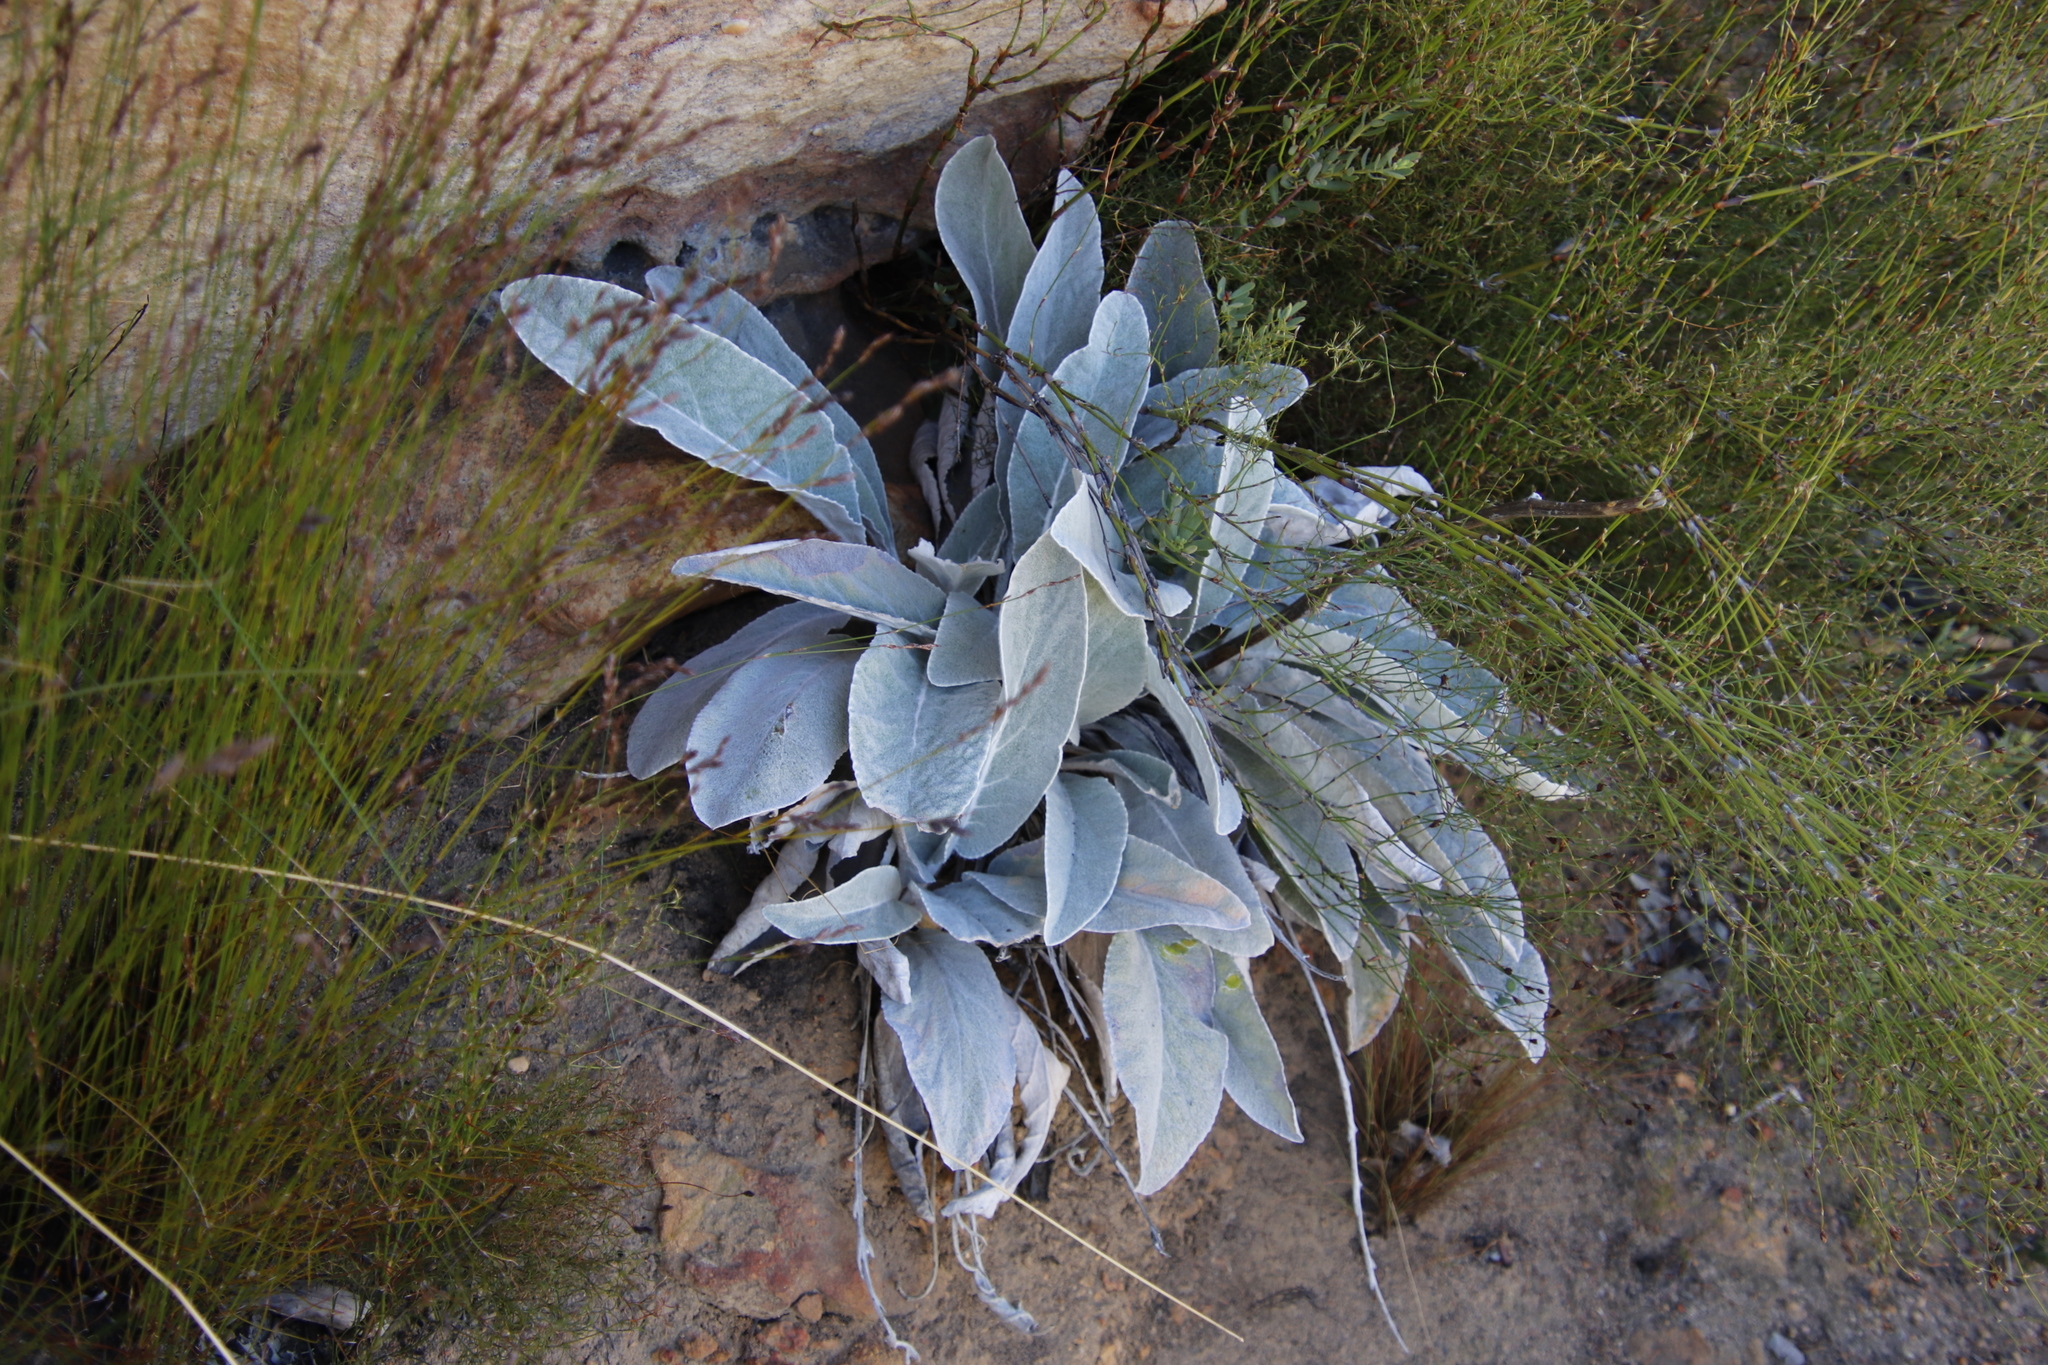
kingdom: Plantae
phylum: Tracheophyta
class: Magnoliopsida
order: Apiales
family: Apiaceae
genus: Hermas
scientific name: Hermas gigantea
